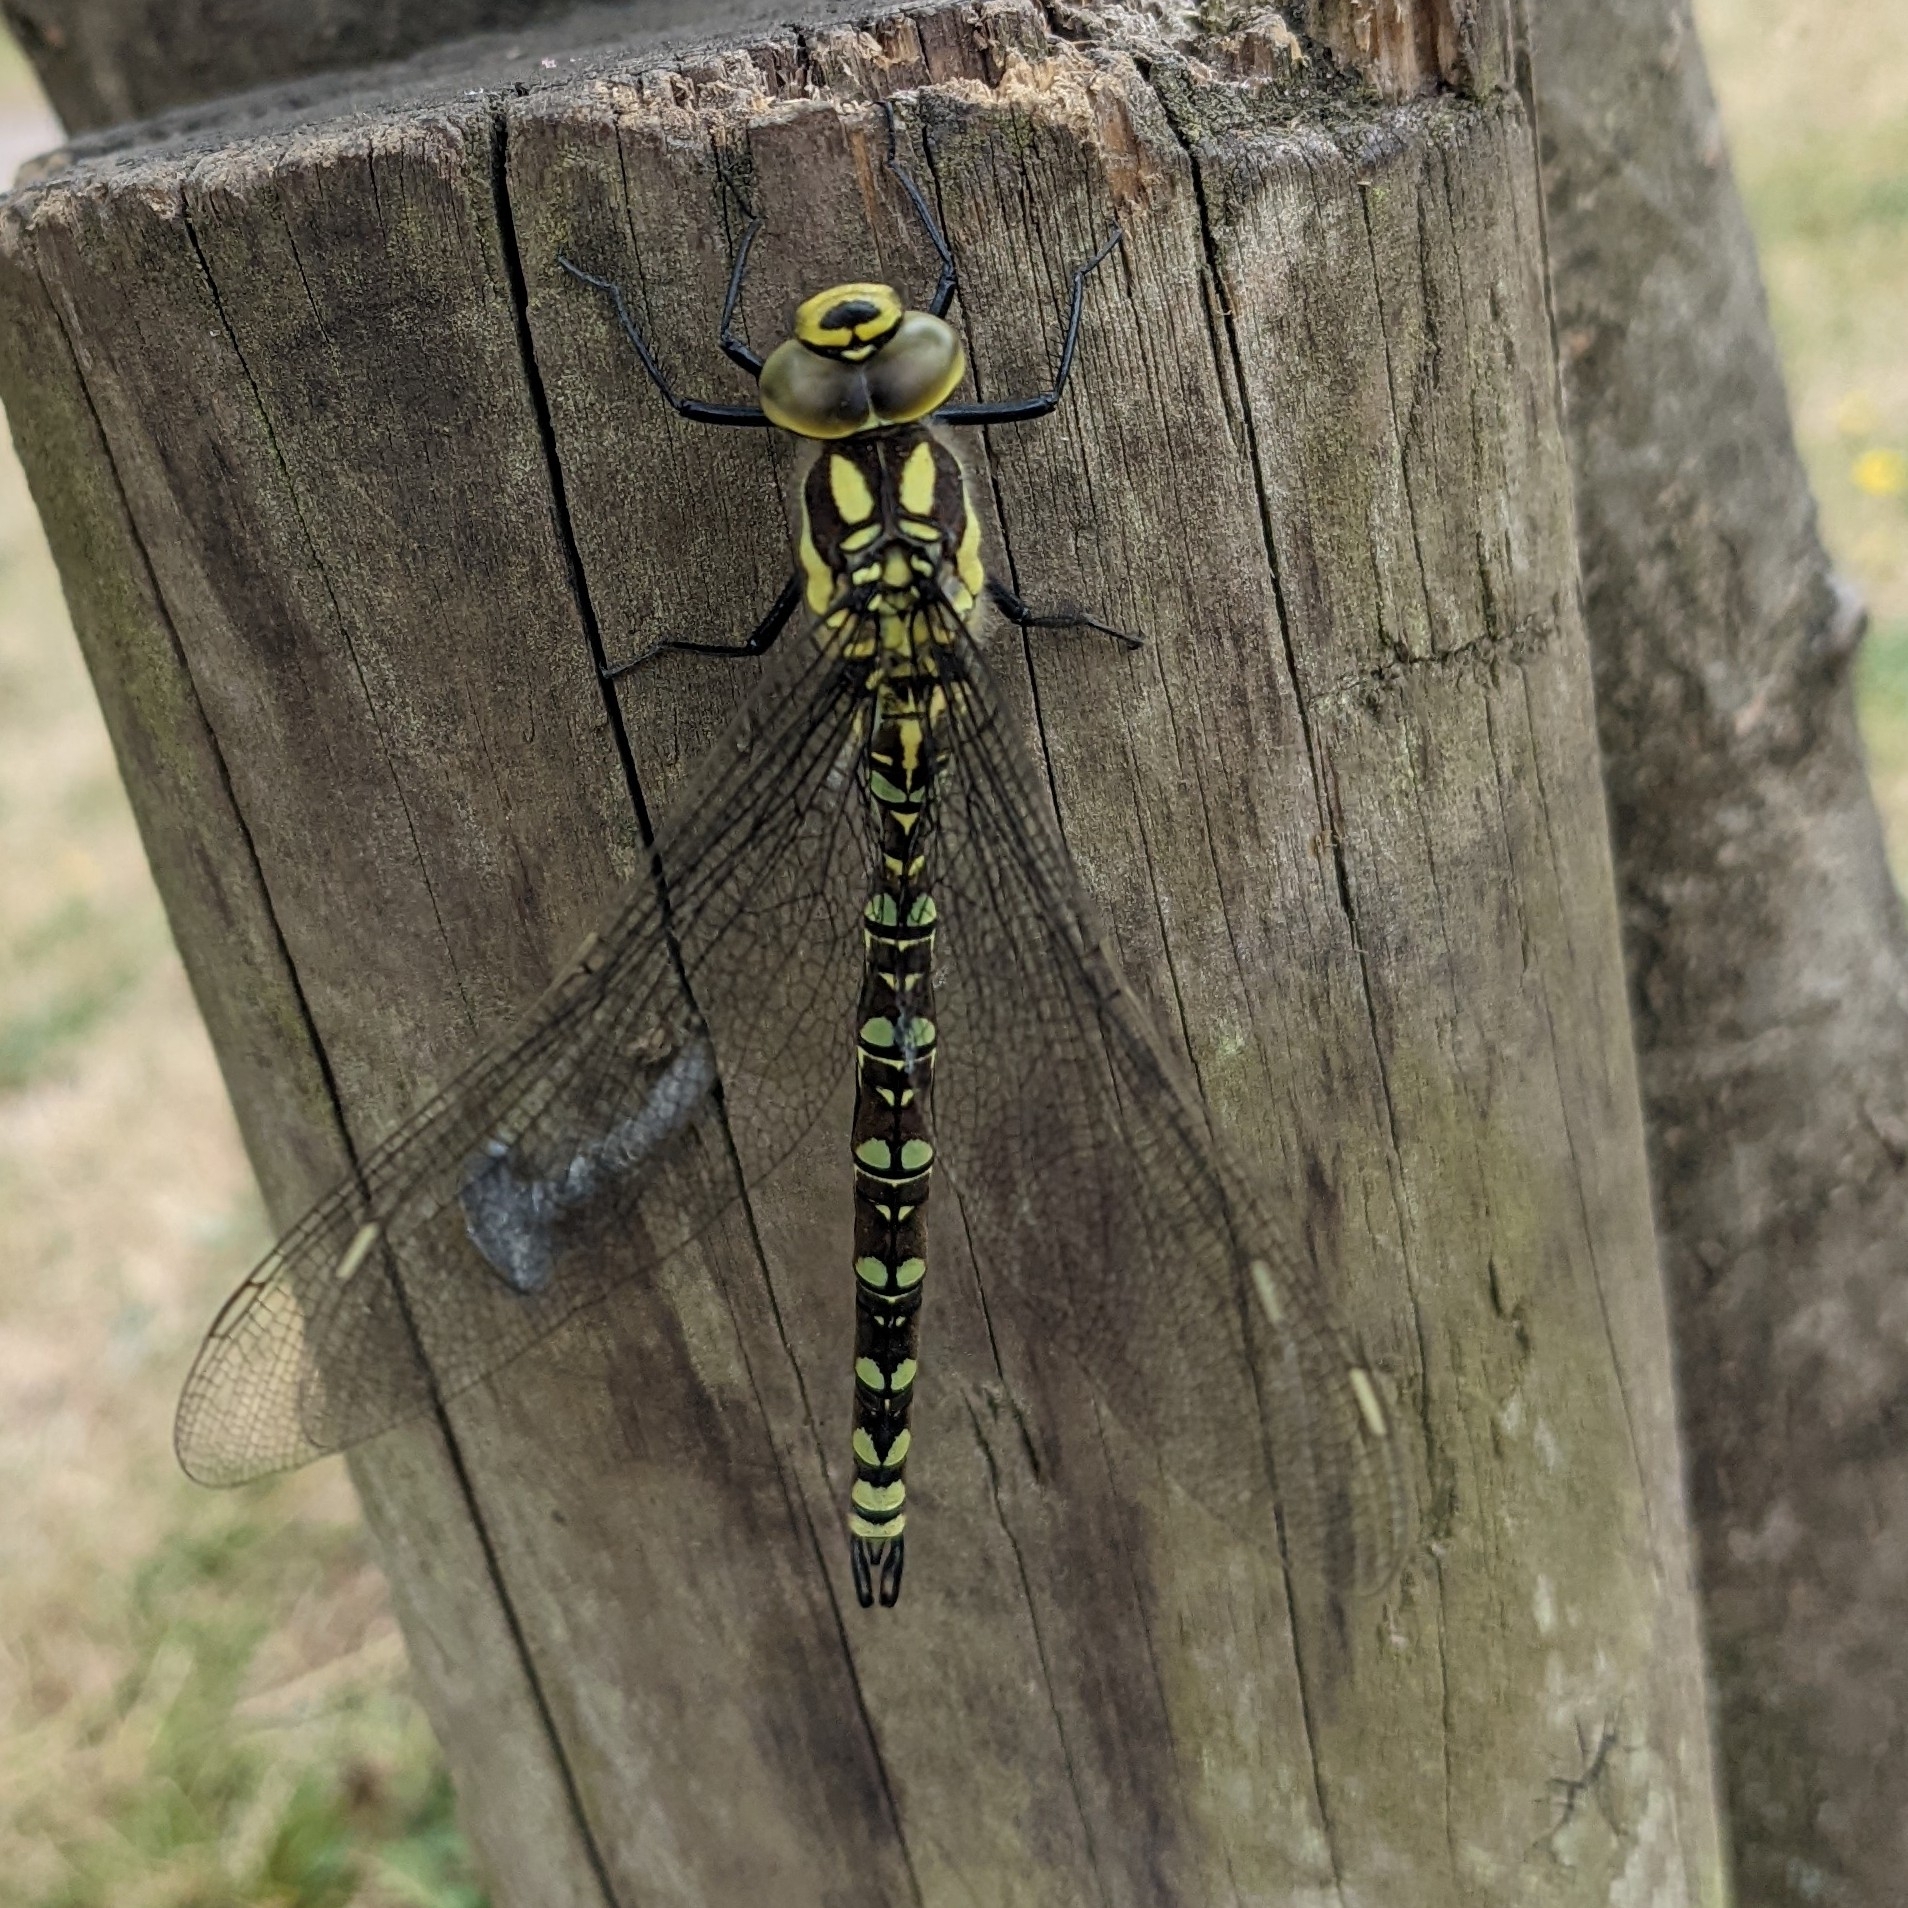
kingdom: Animalia
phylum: Arthropoda
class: Insecta
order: Odonata
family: Aeshnidae
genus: Aeshna
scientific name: Aeshna cyanea
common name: Southern hawker
